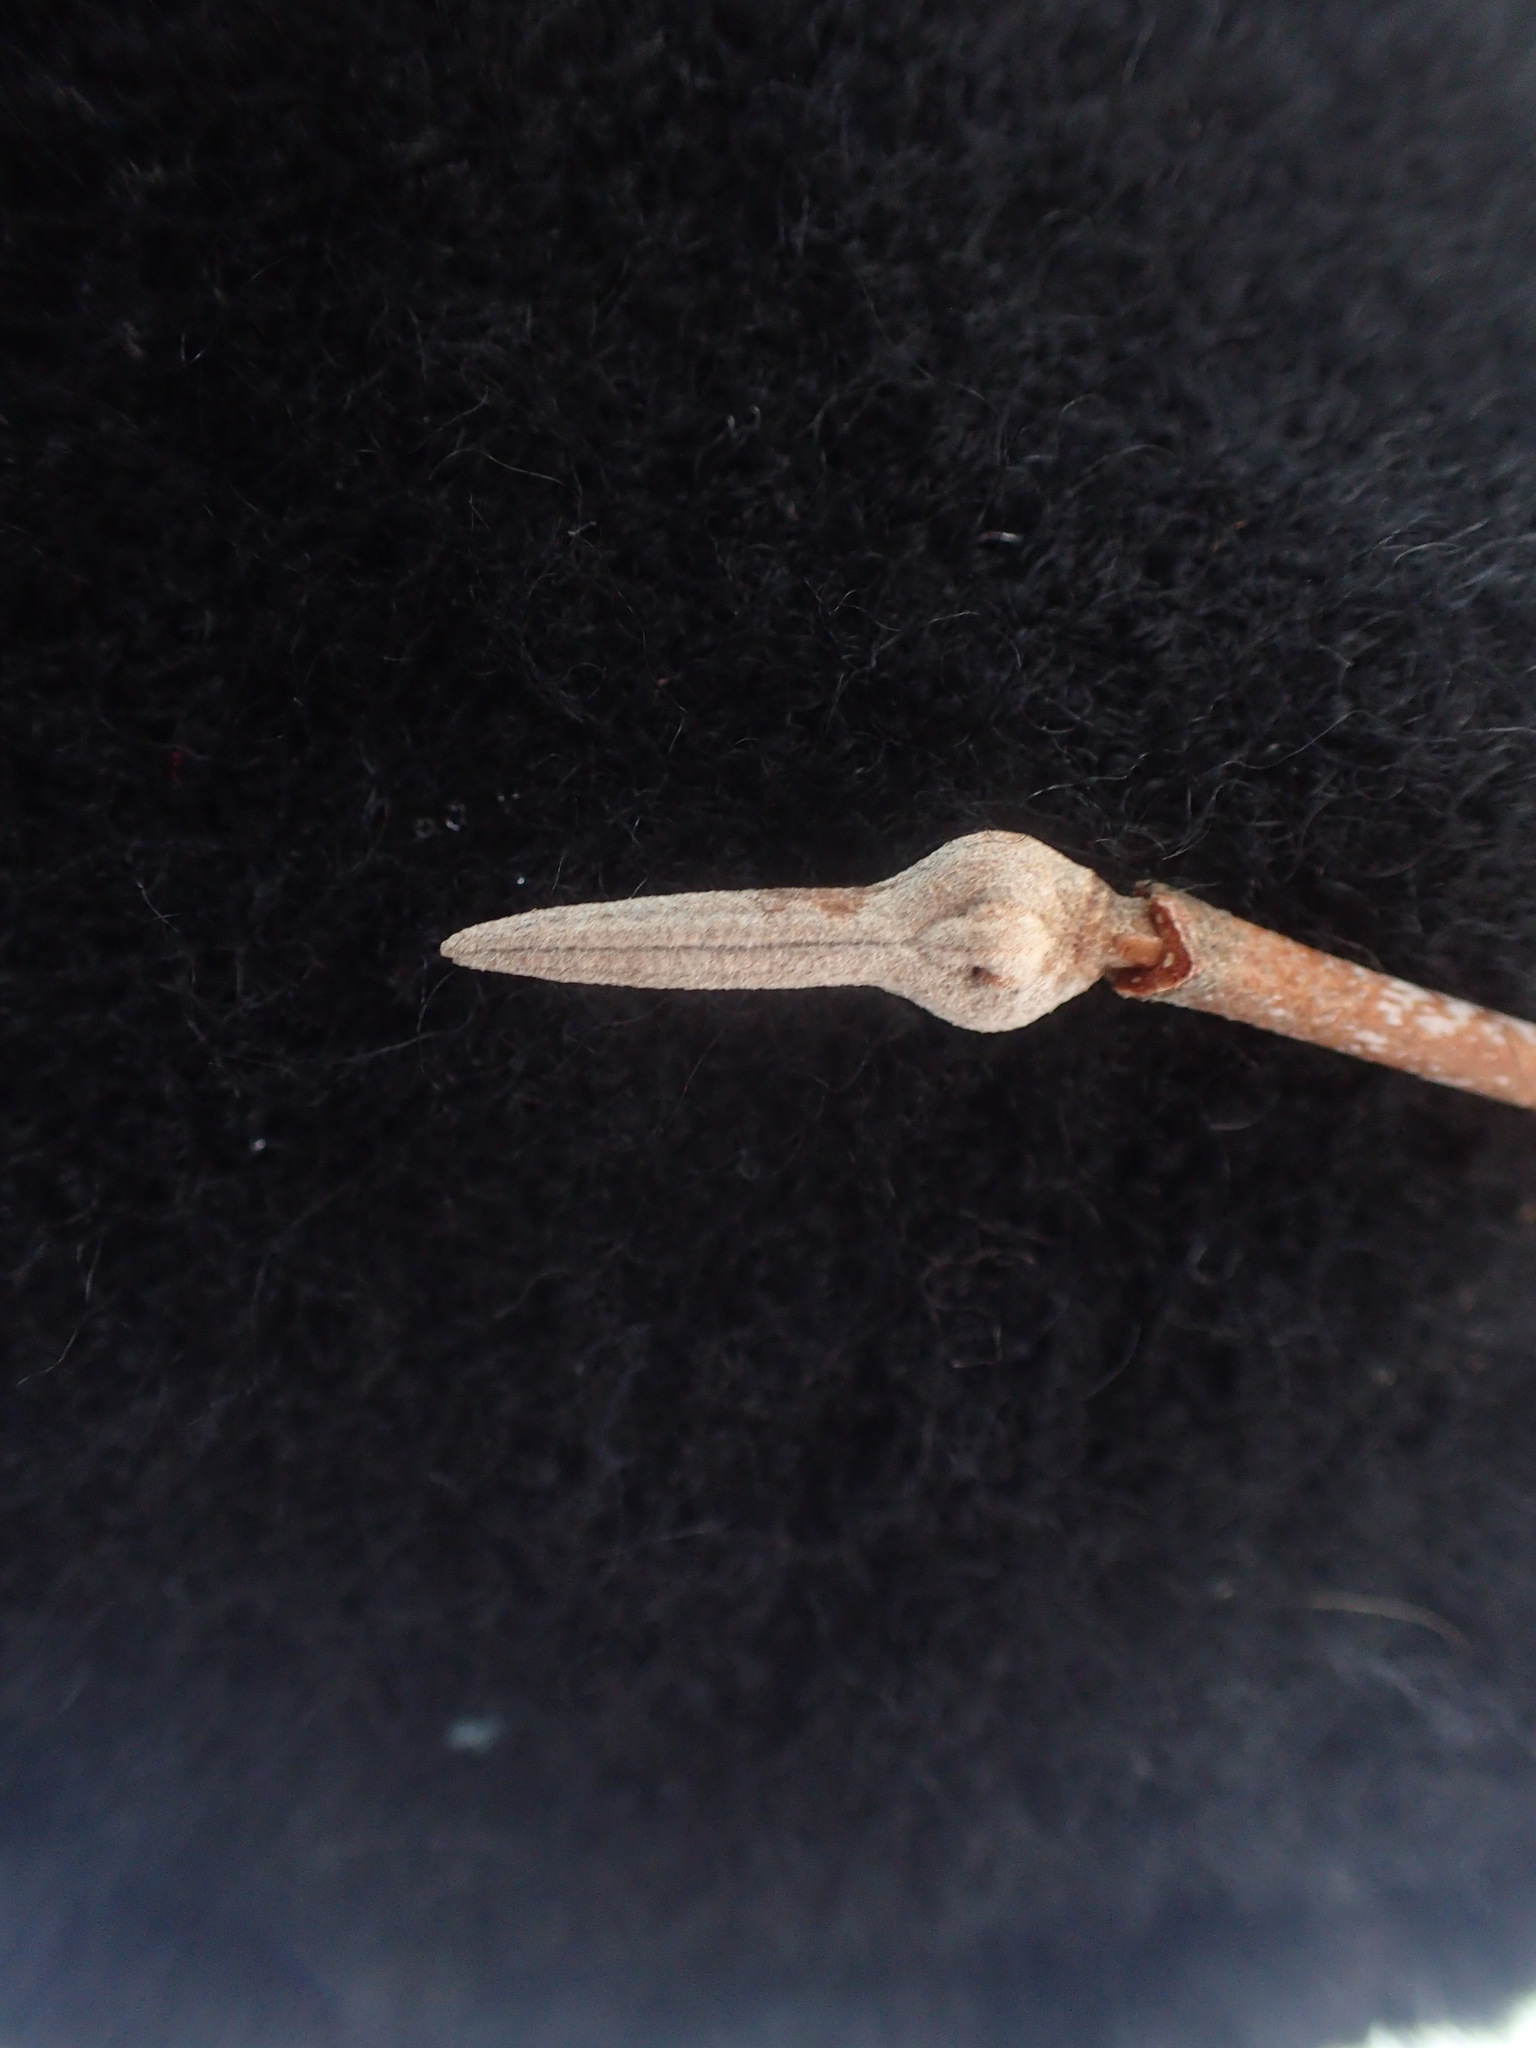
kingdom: Plantae
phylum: Tracheophyta
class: Magnoliopsida
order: Dipsacales
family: Viburnaceae
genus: Viburnum
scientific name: Viburnum cassinoides
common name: Swamp haw
